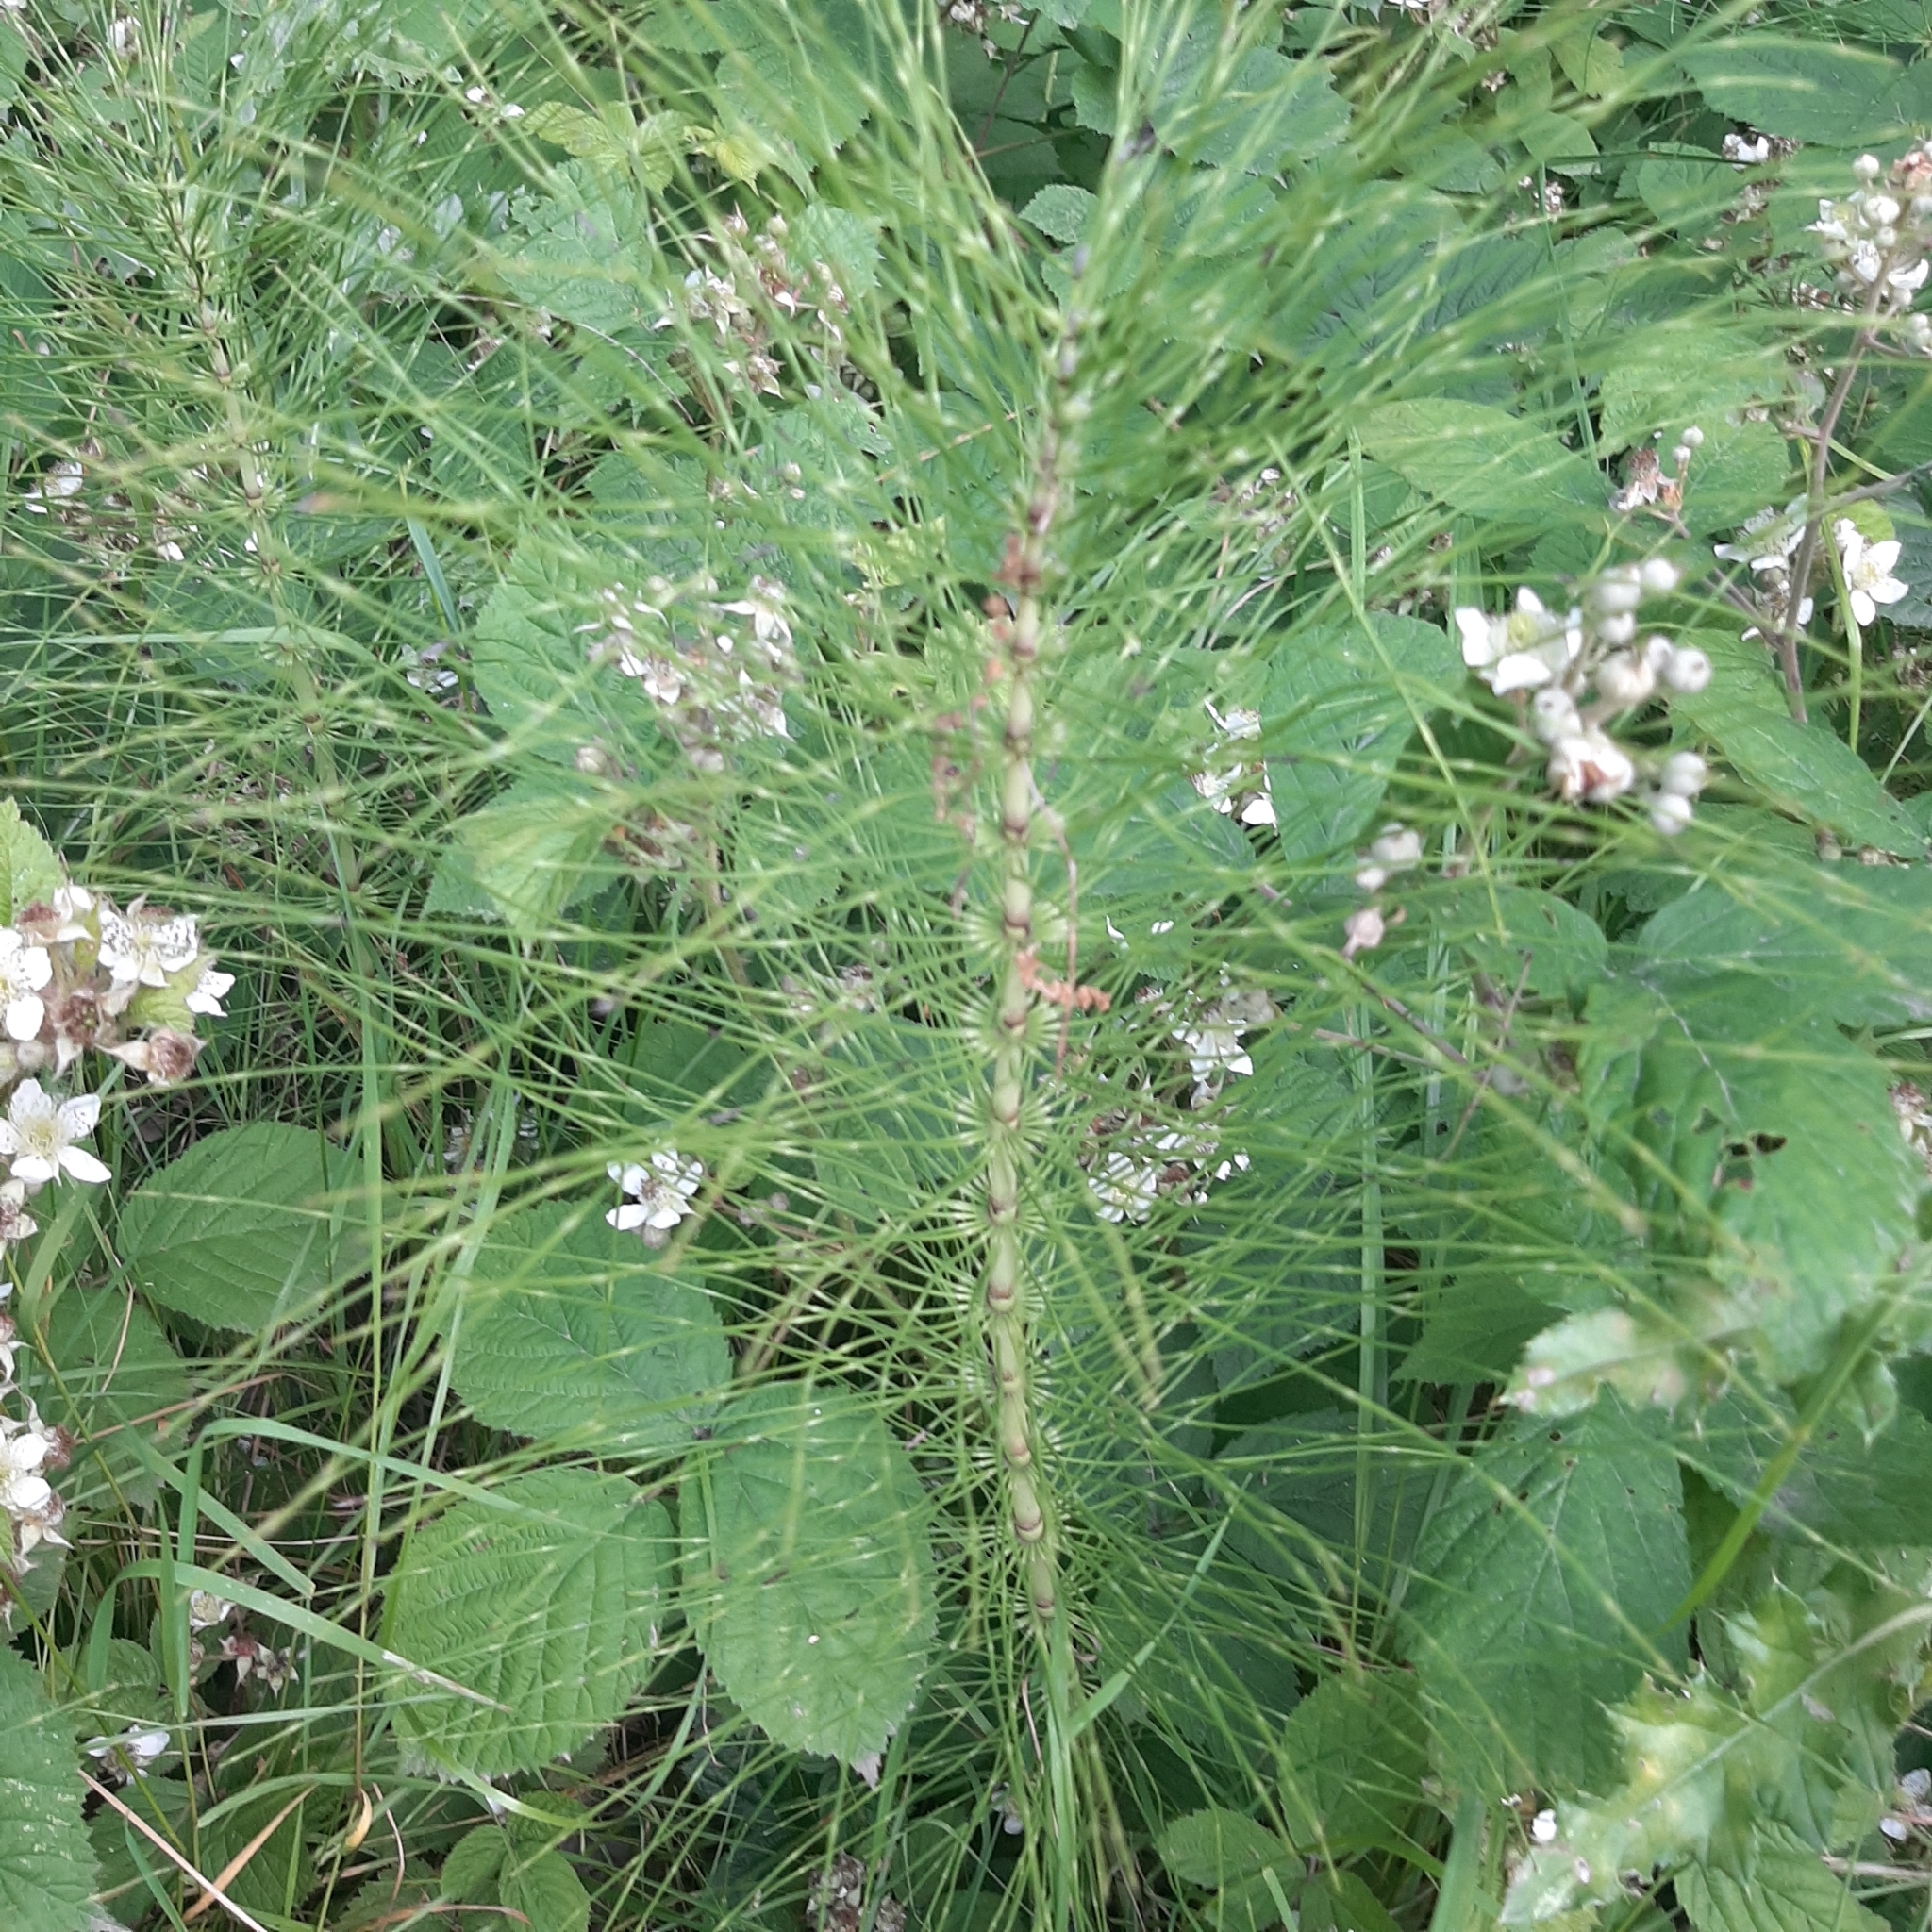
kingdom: Plantae
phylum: Tracheophyta
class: Polypodiopsida
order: Equisetales
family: Equisetaceae
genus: Equisetum
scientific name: Equisetum telmateia
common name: Great horsetail
